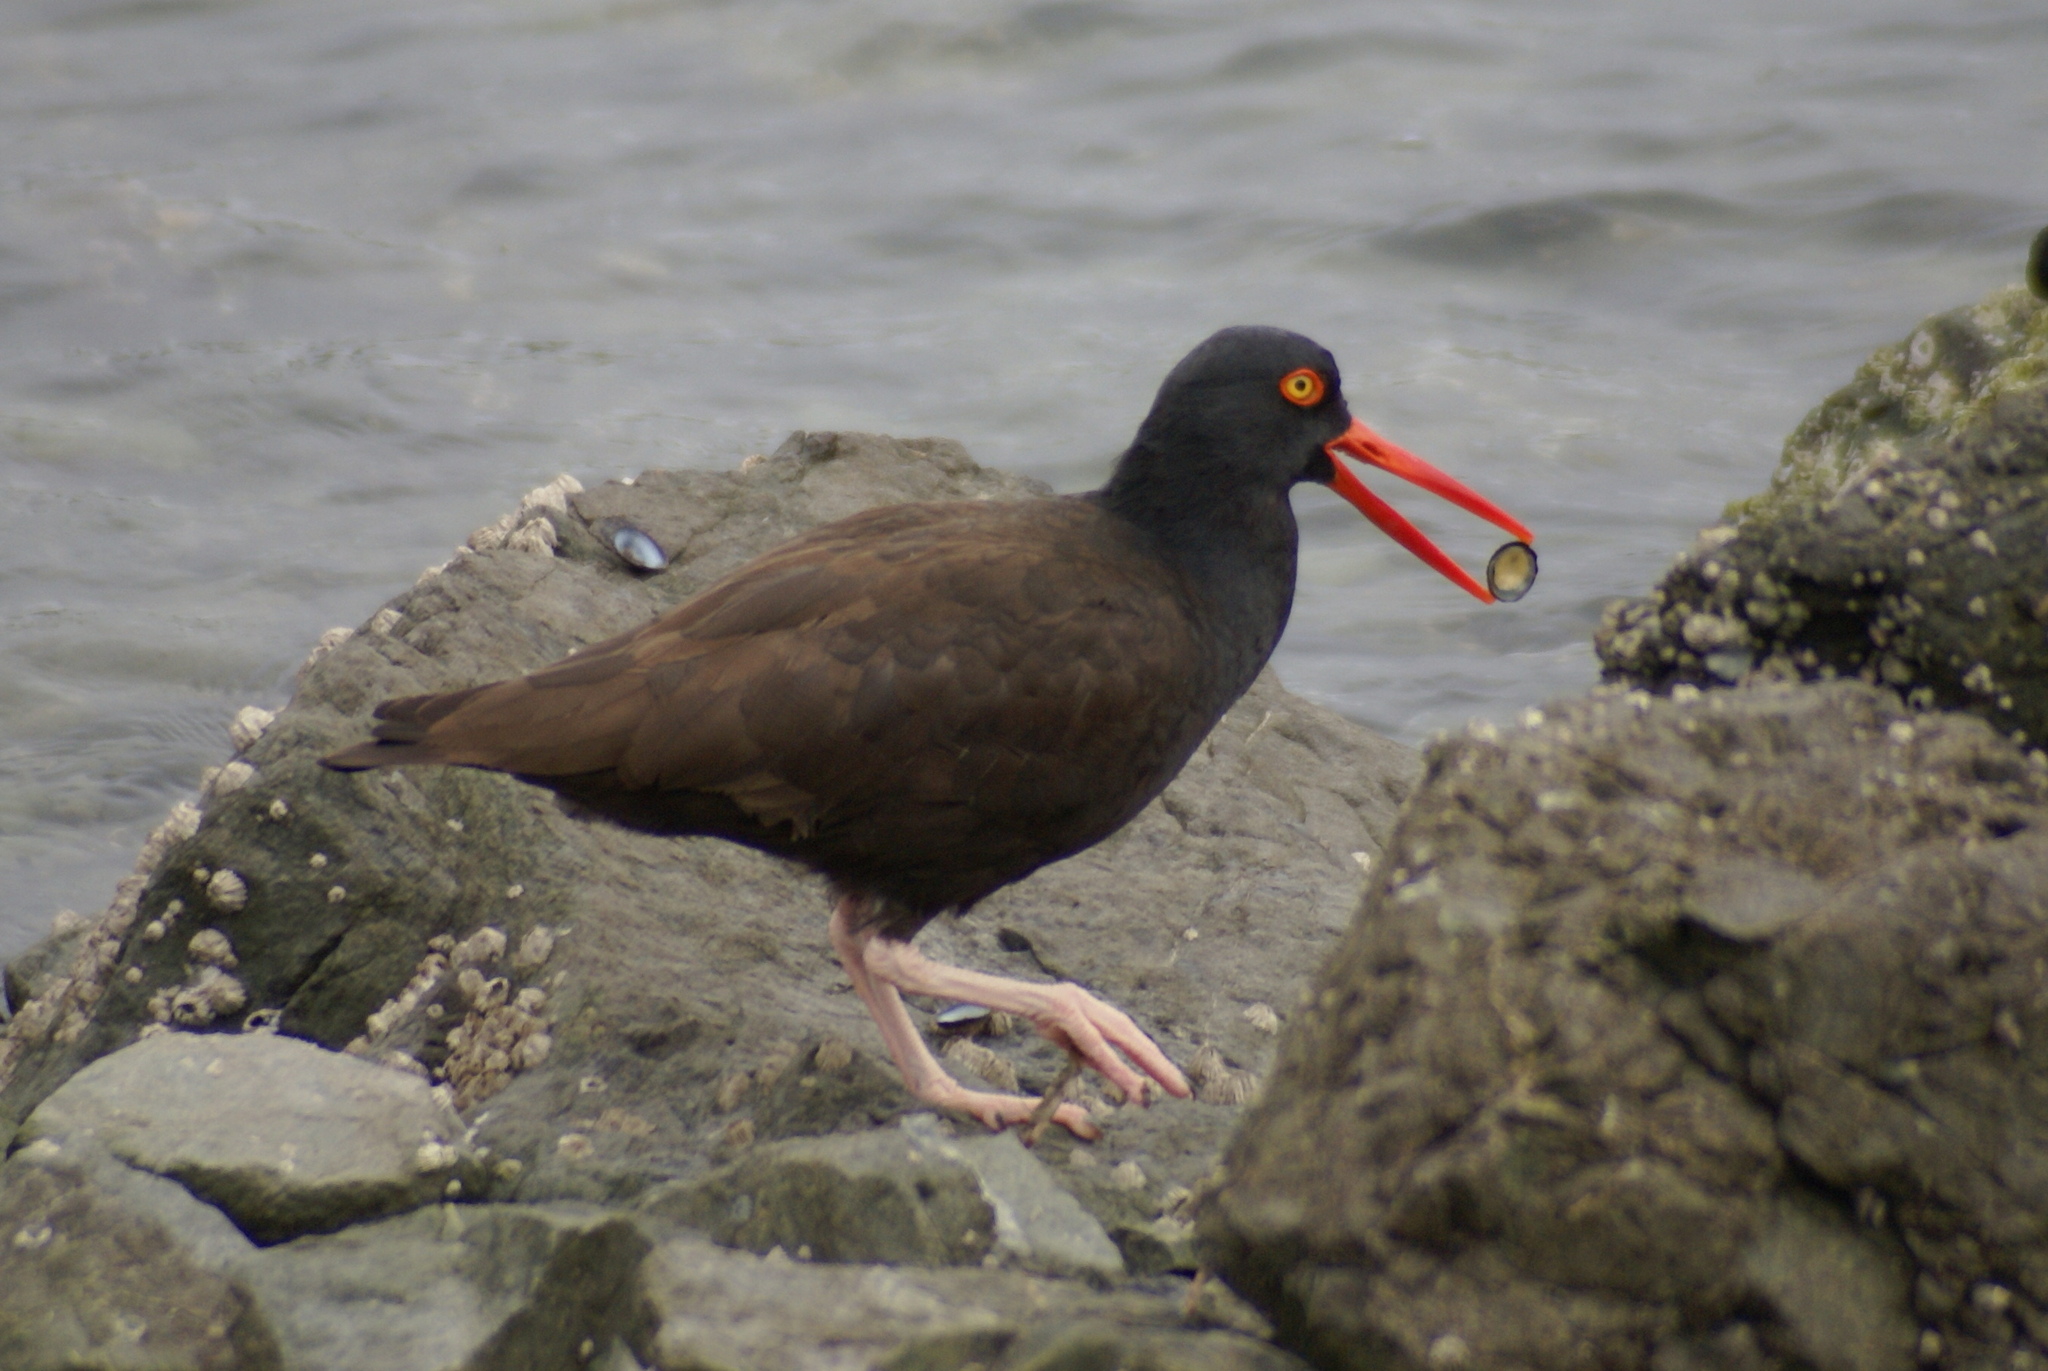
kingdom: Animalia
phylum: Chordata
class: Aves
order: Charadriiformes
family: Haematopodidae
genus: Haematopus
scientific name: Haematopus bachmani
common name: Black oystercatcher
